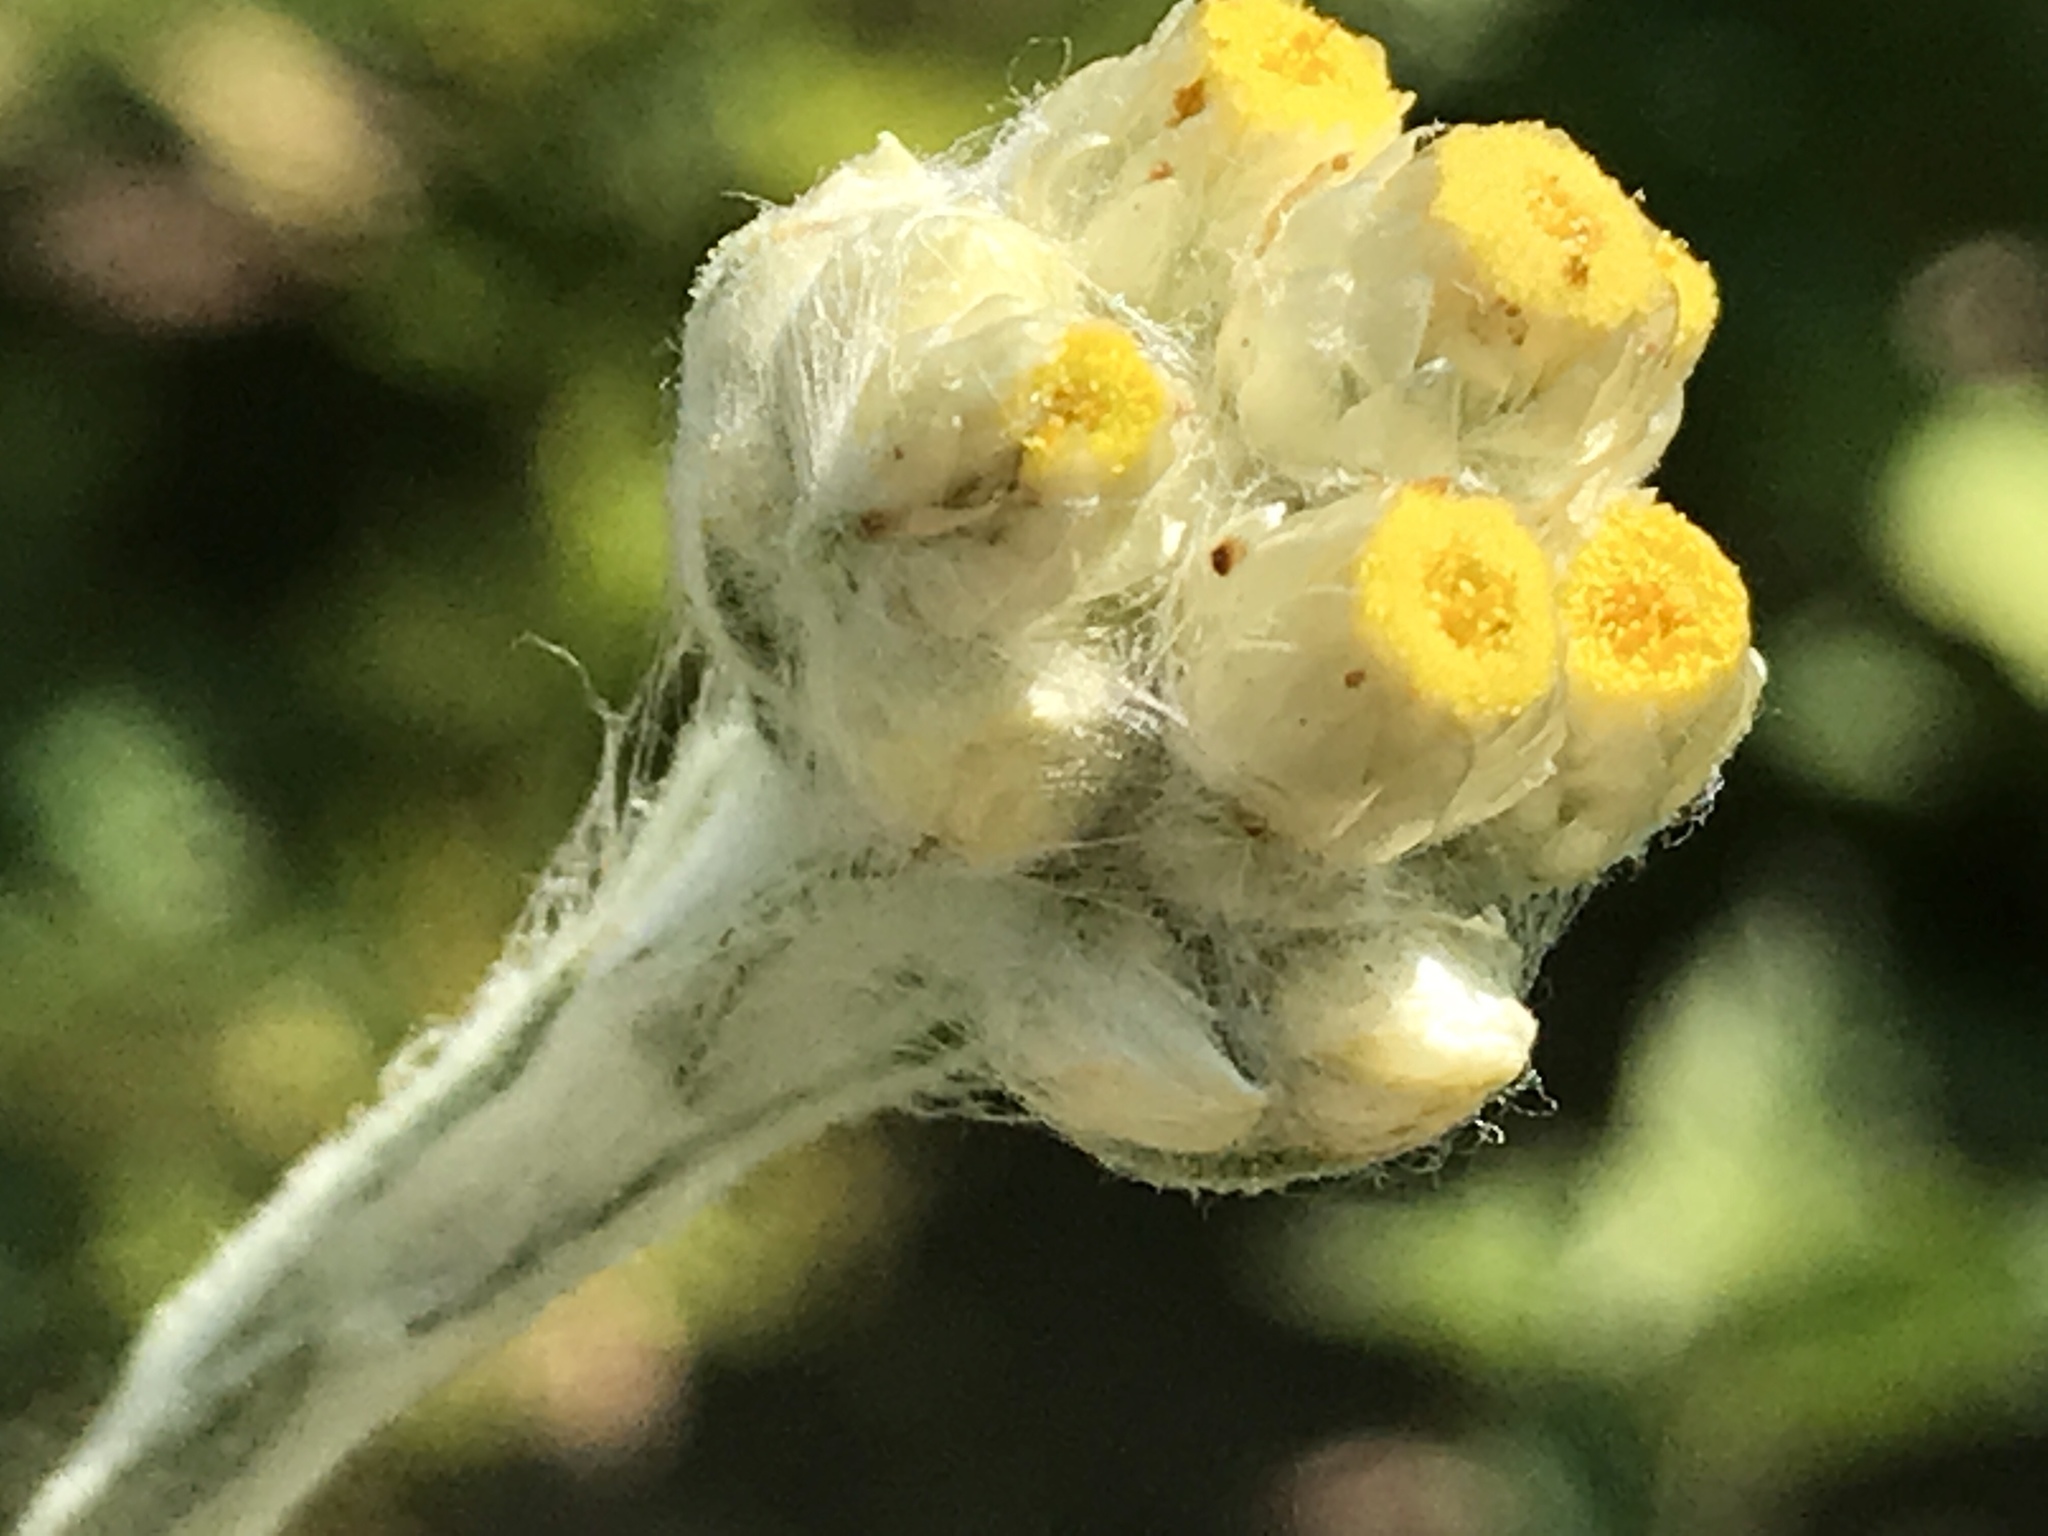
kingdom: Plantae
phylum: Tracheophyta
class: Magnoliopsida
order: Asterales
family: Asteraceae
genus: Pseudognaphalium
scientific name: Pseudognaphalium stramineum
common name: Cotton-batting-plant
